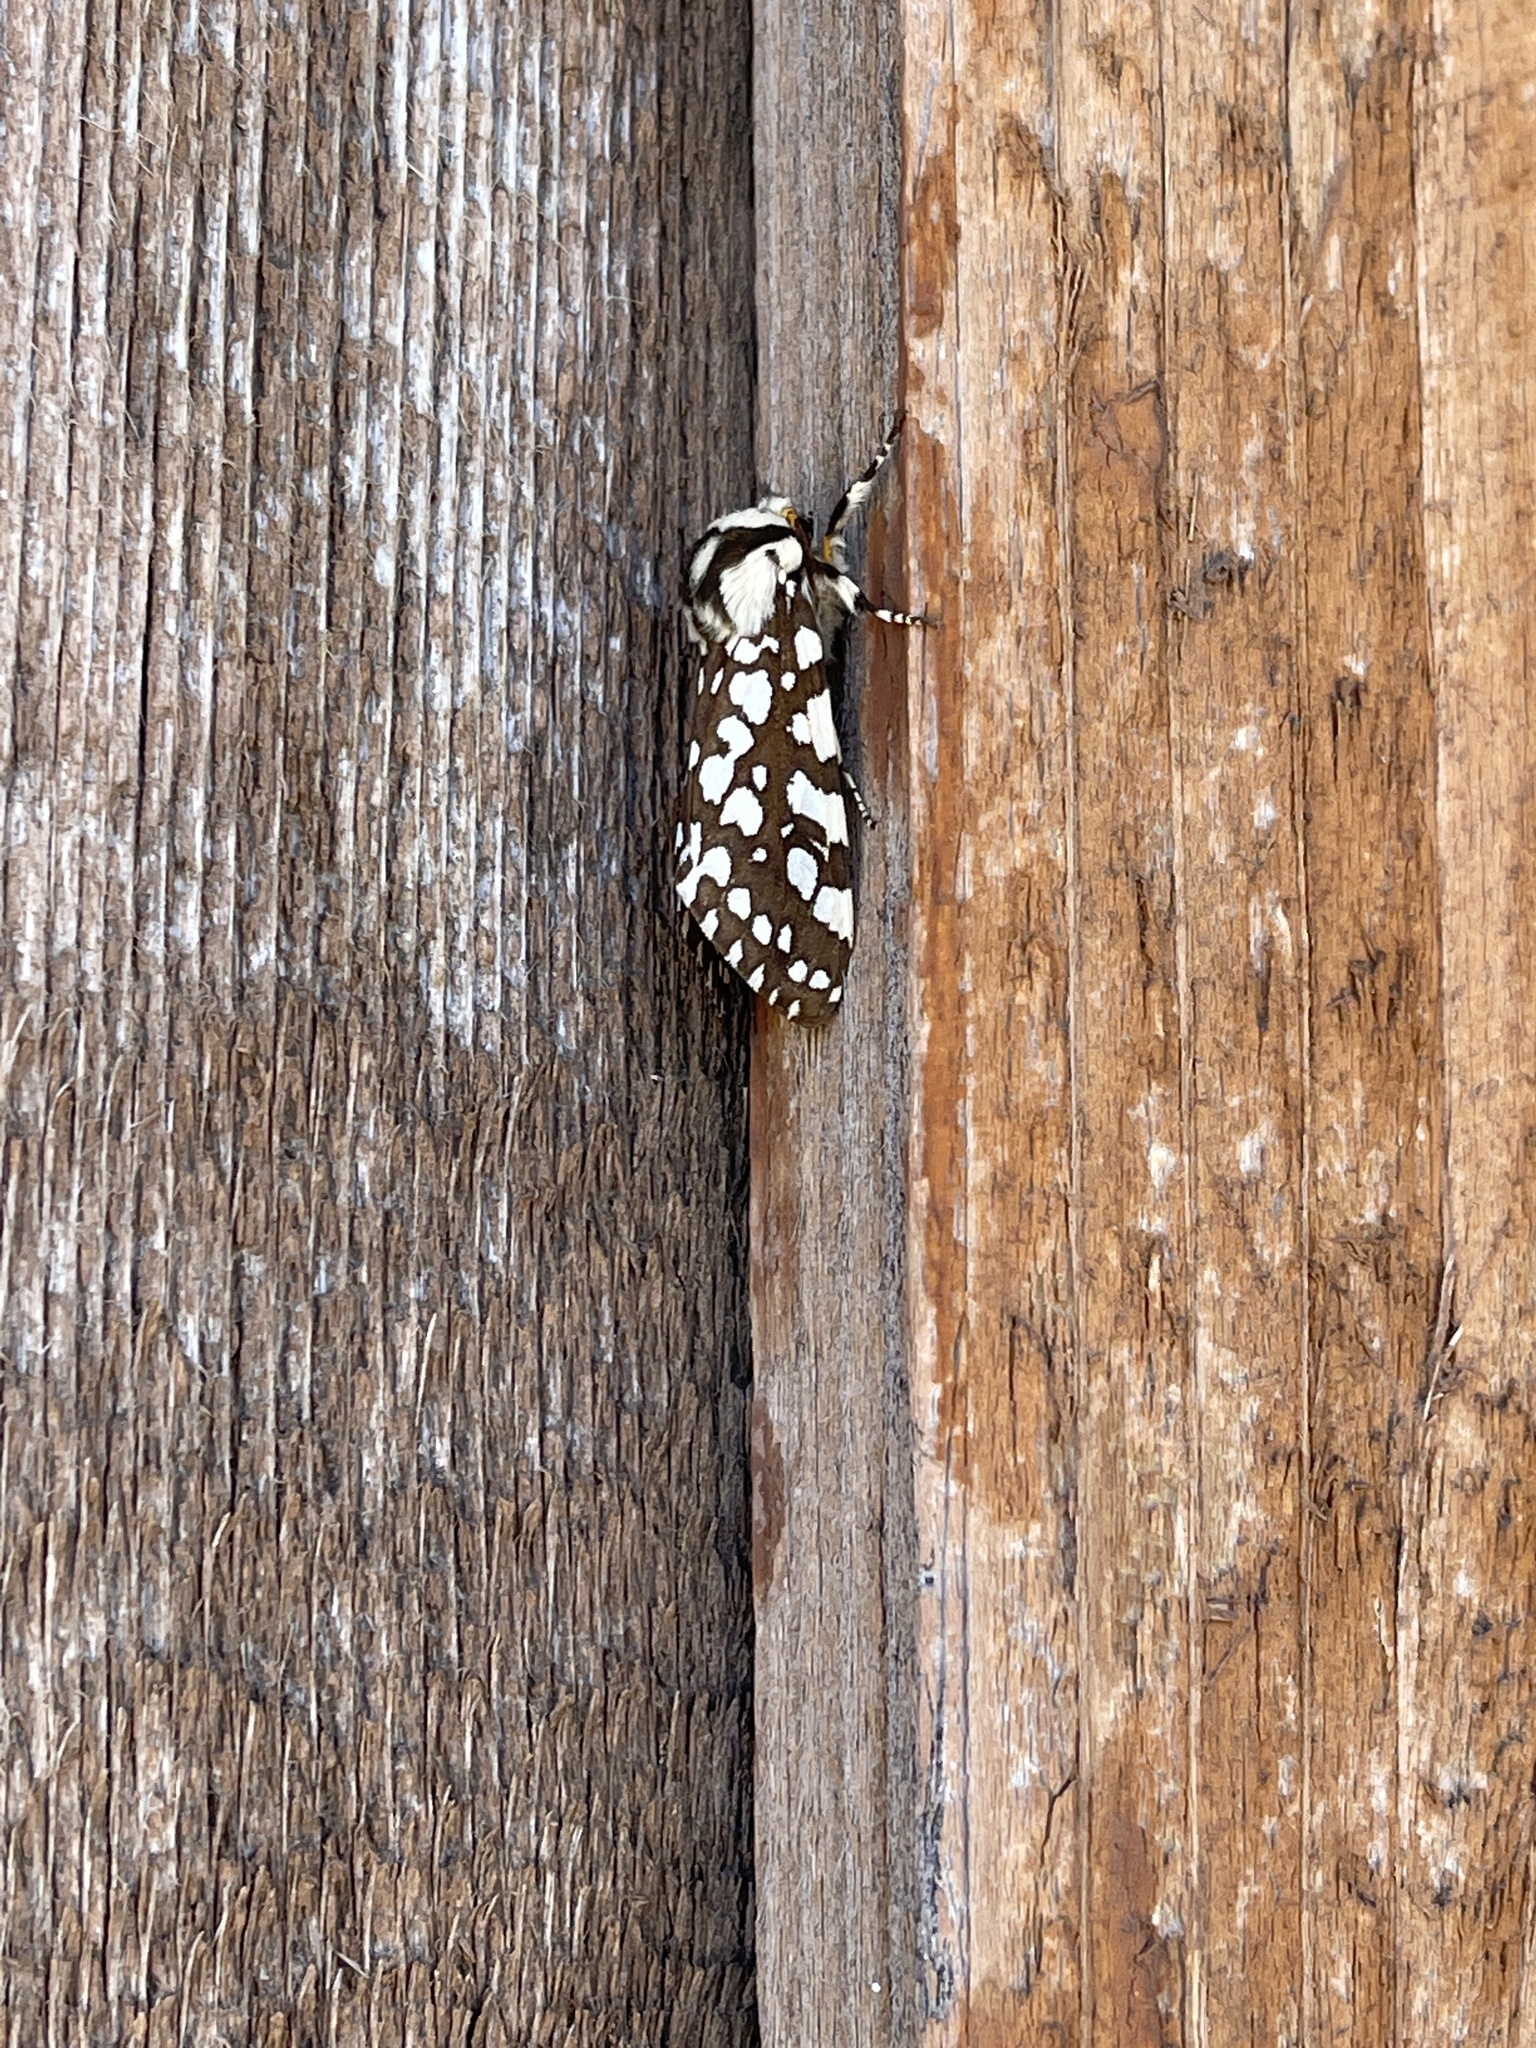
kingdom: Animalia
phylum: Arthropoda
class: Insecta
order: Lepidoptera
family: Erebidae
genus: Lophocampa
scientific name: Lophocampa ingens
